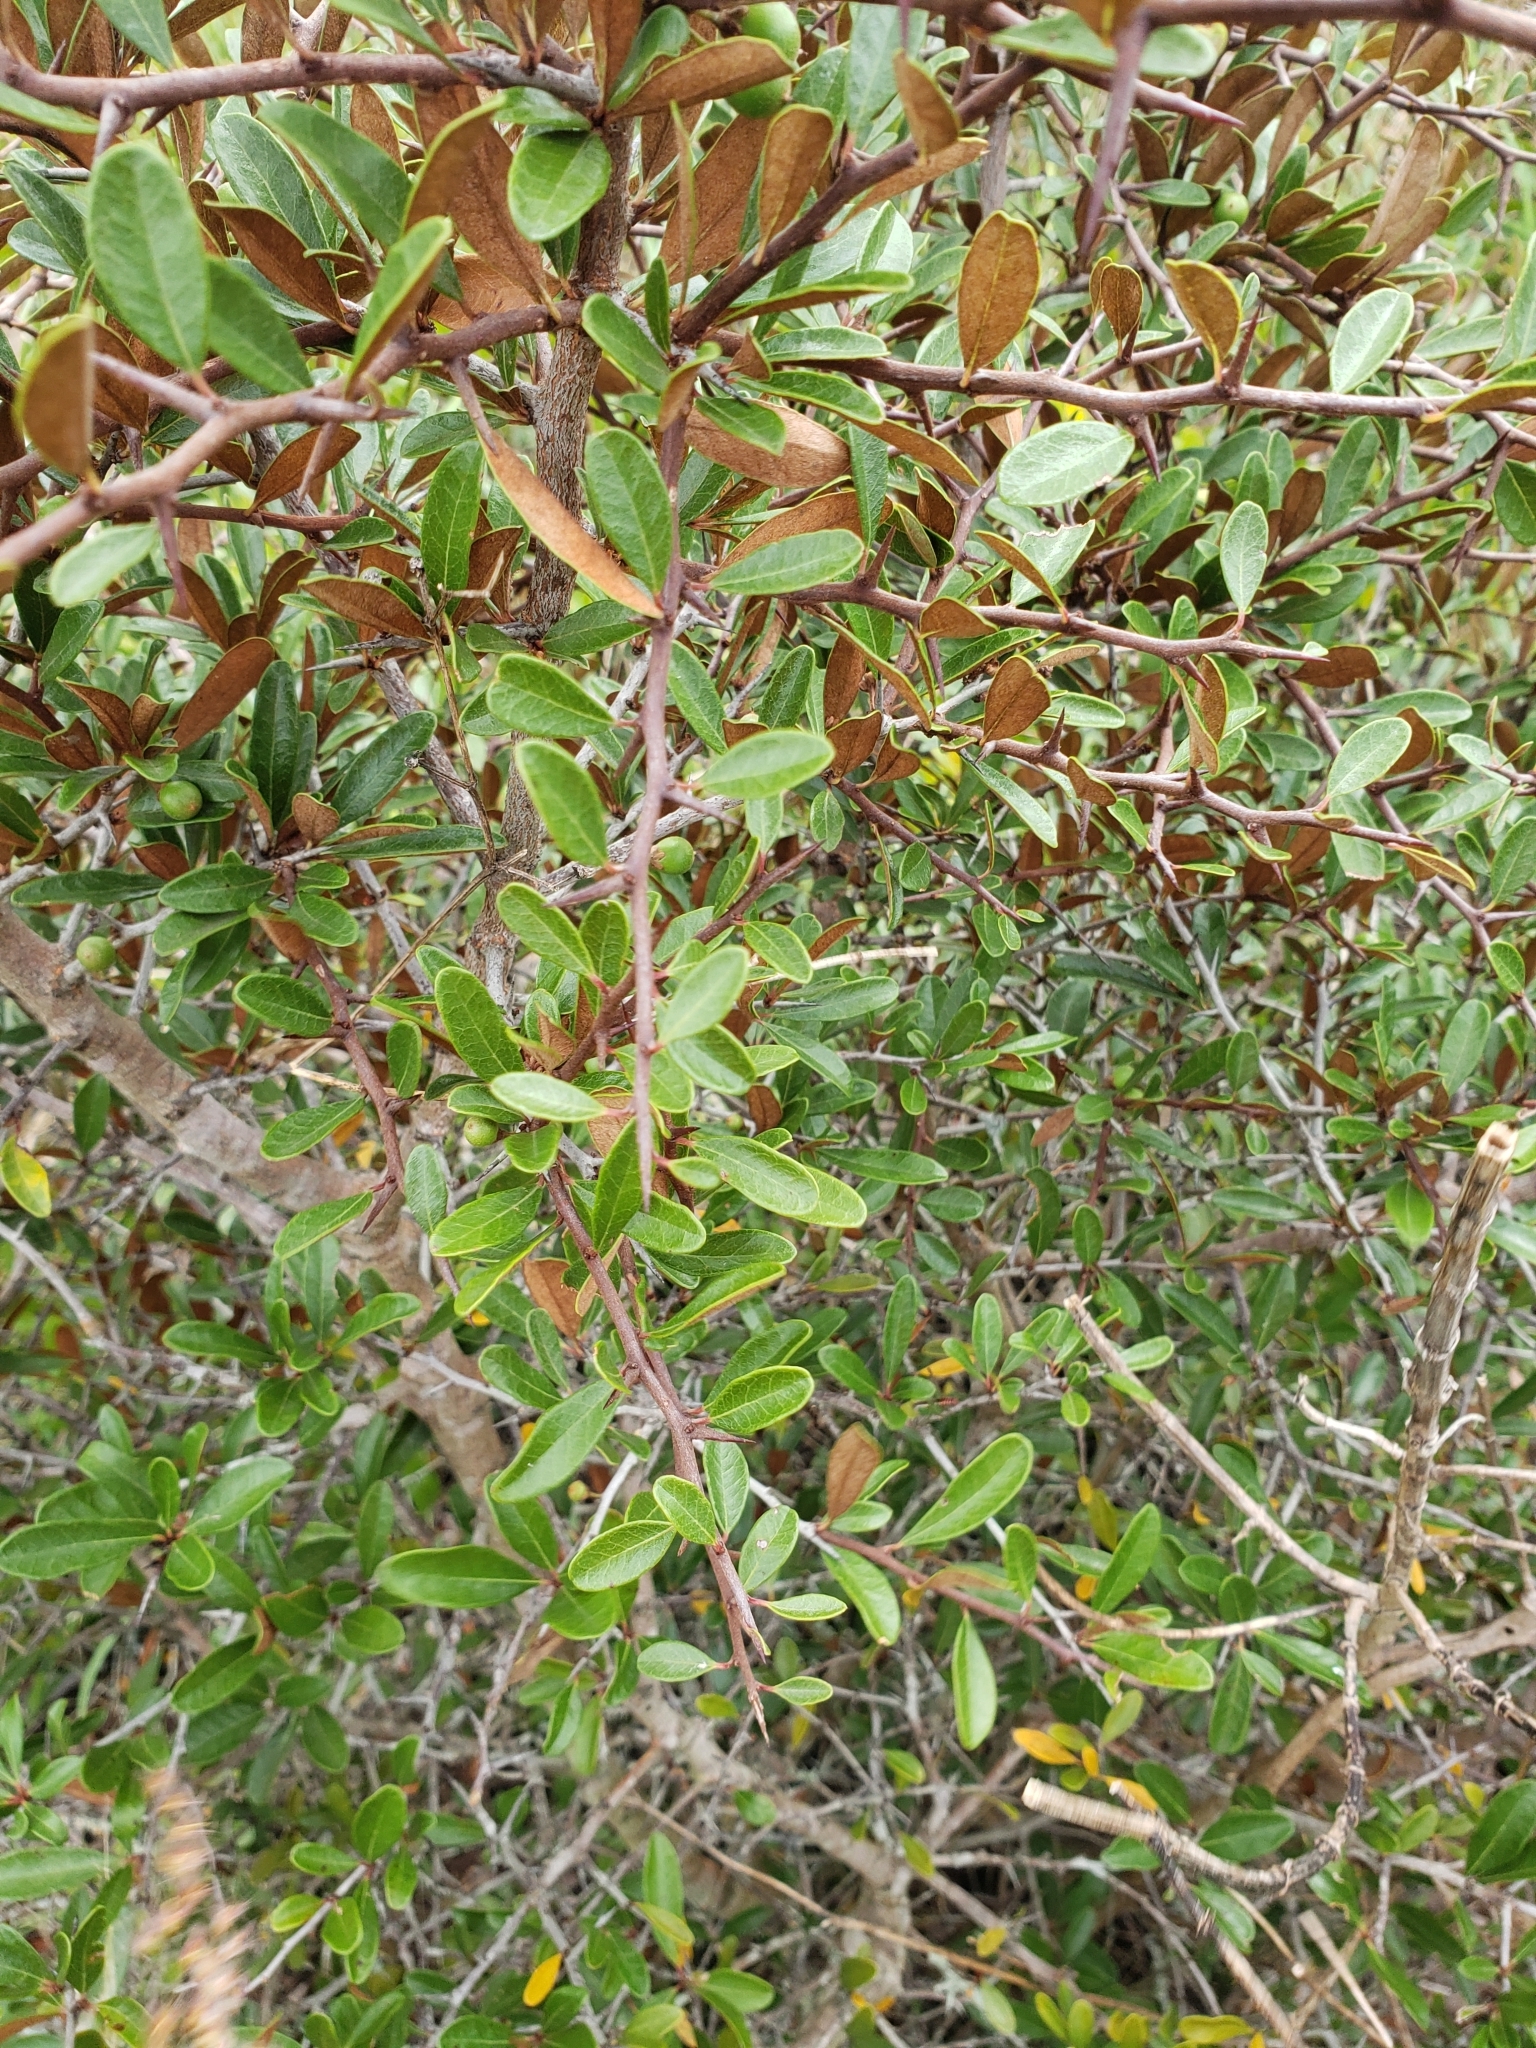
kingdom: Plantae
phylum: Tracheophyta
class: Magnoliopsida
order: Ericales
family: Sapotaceae
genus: Sideroxylon
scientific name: Sideroxylon tenax
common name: Tough-buckthorn
